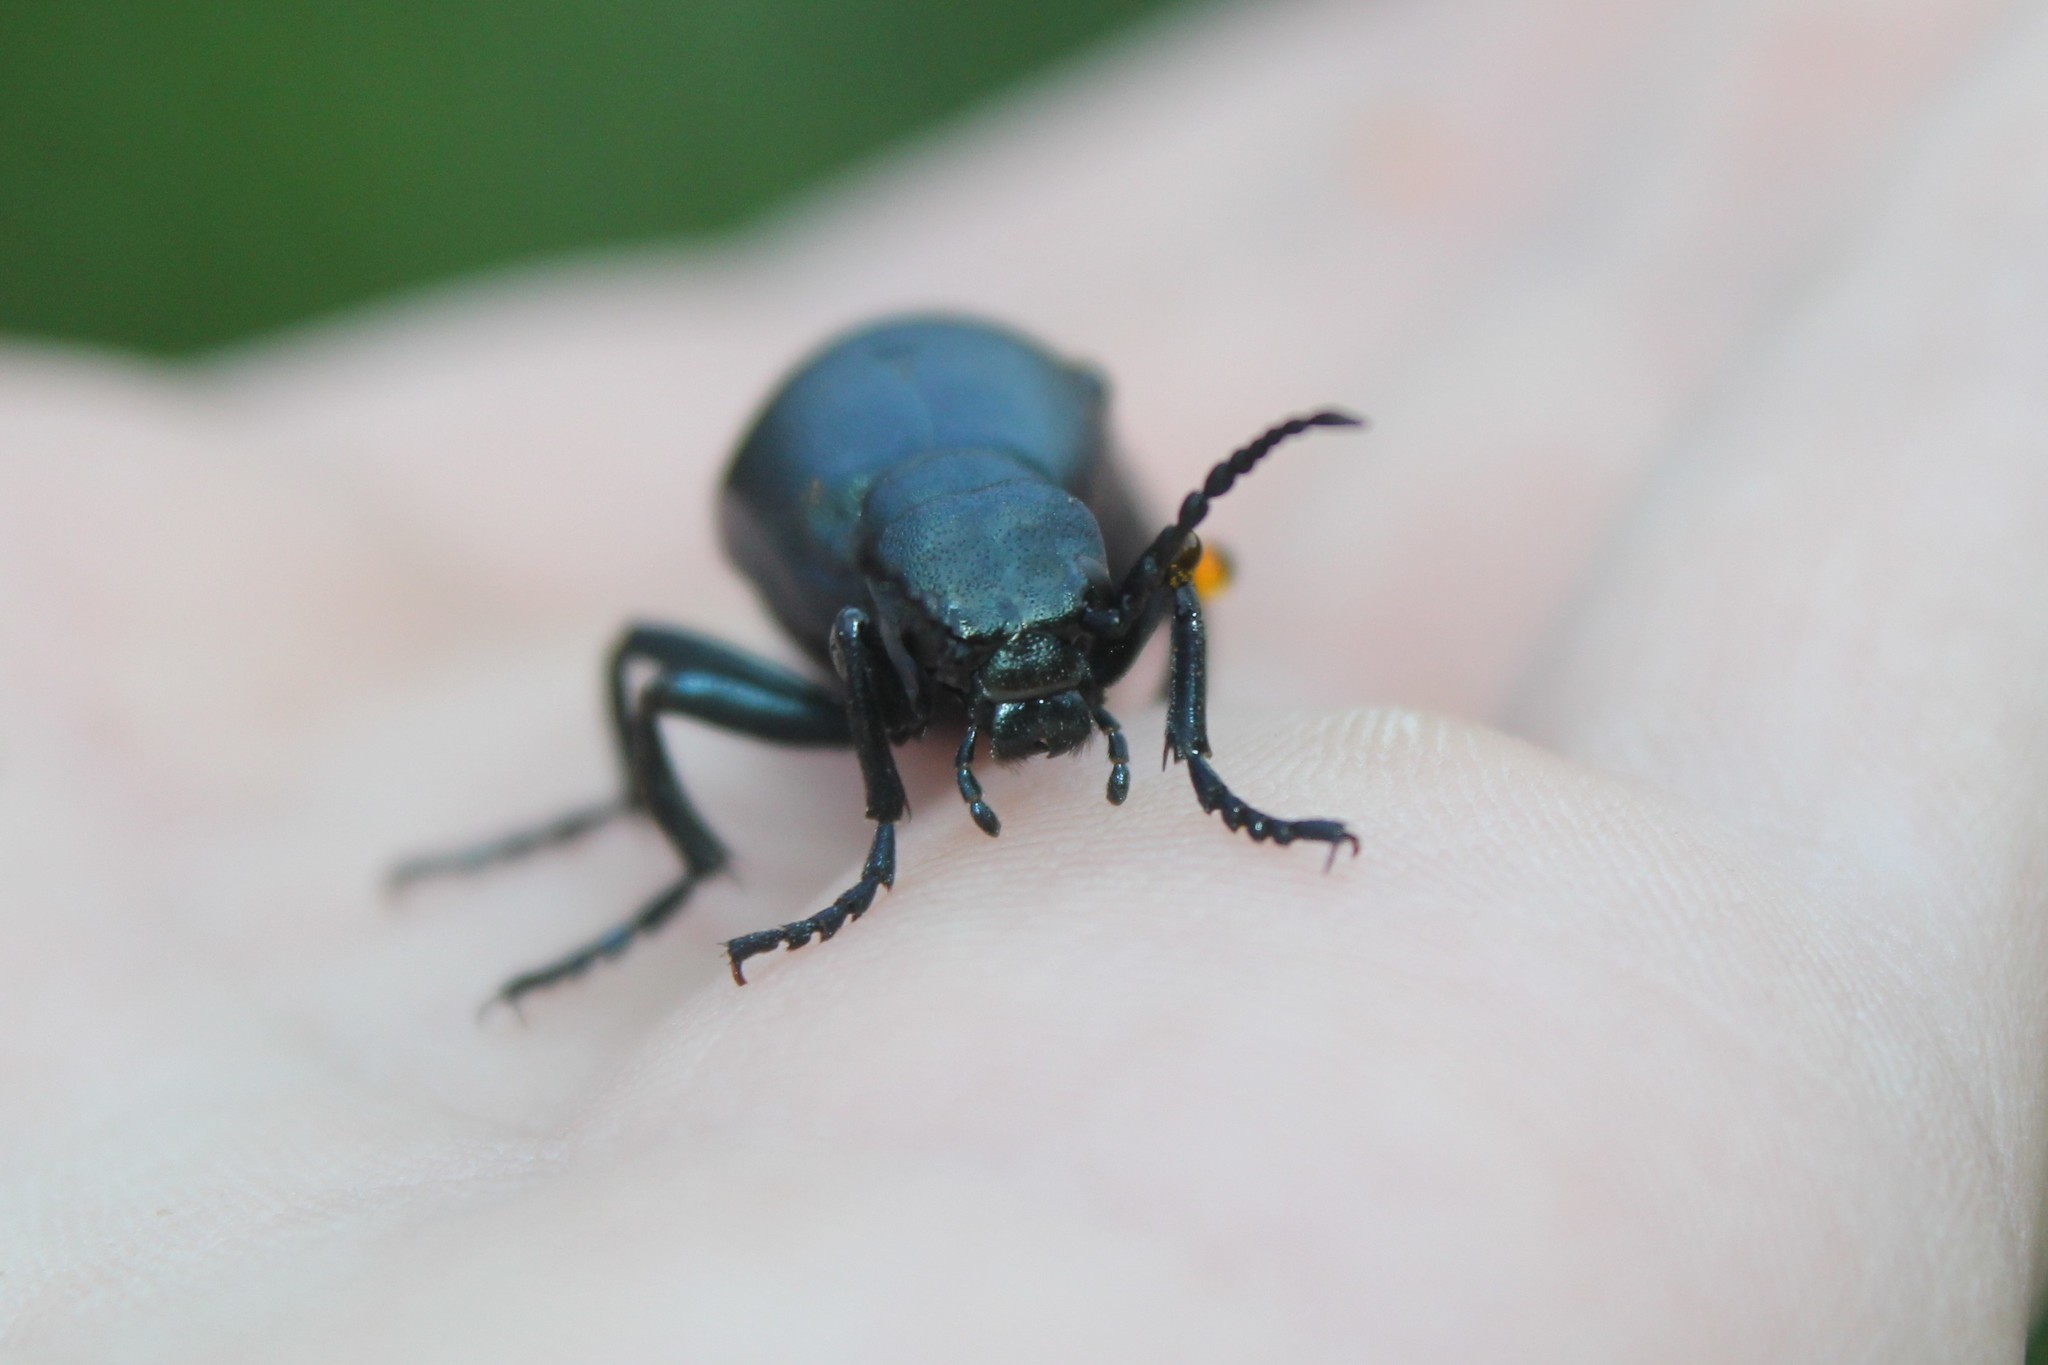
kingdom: Animalia
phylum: Arthropoda
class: Insecta
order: Coleoptera
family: Meloidae
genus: Meloe
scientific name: Meloe campanicollis
